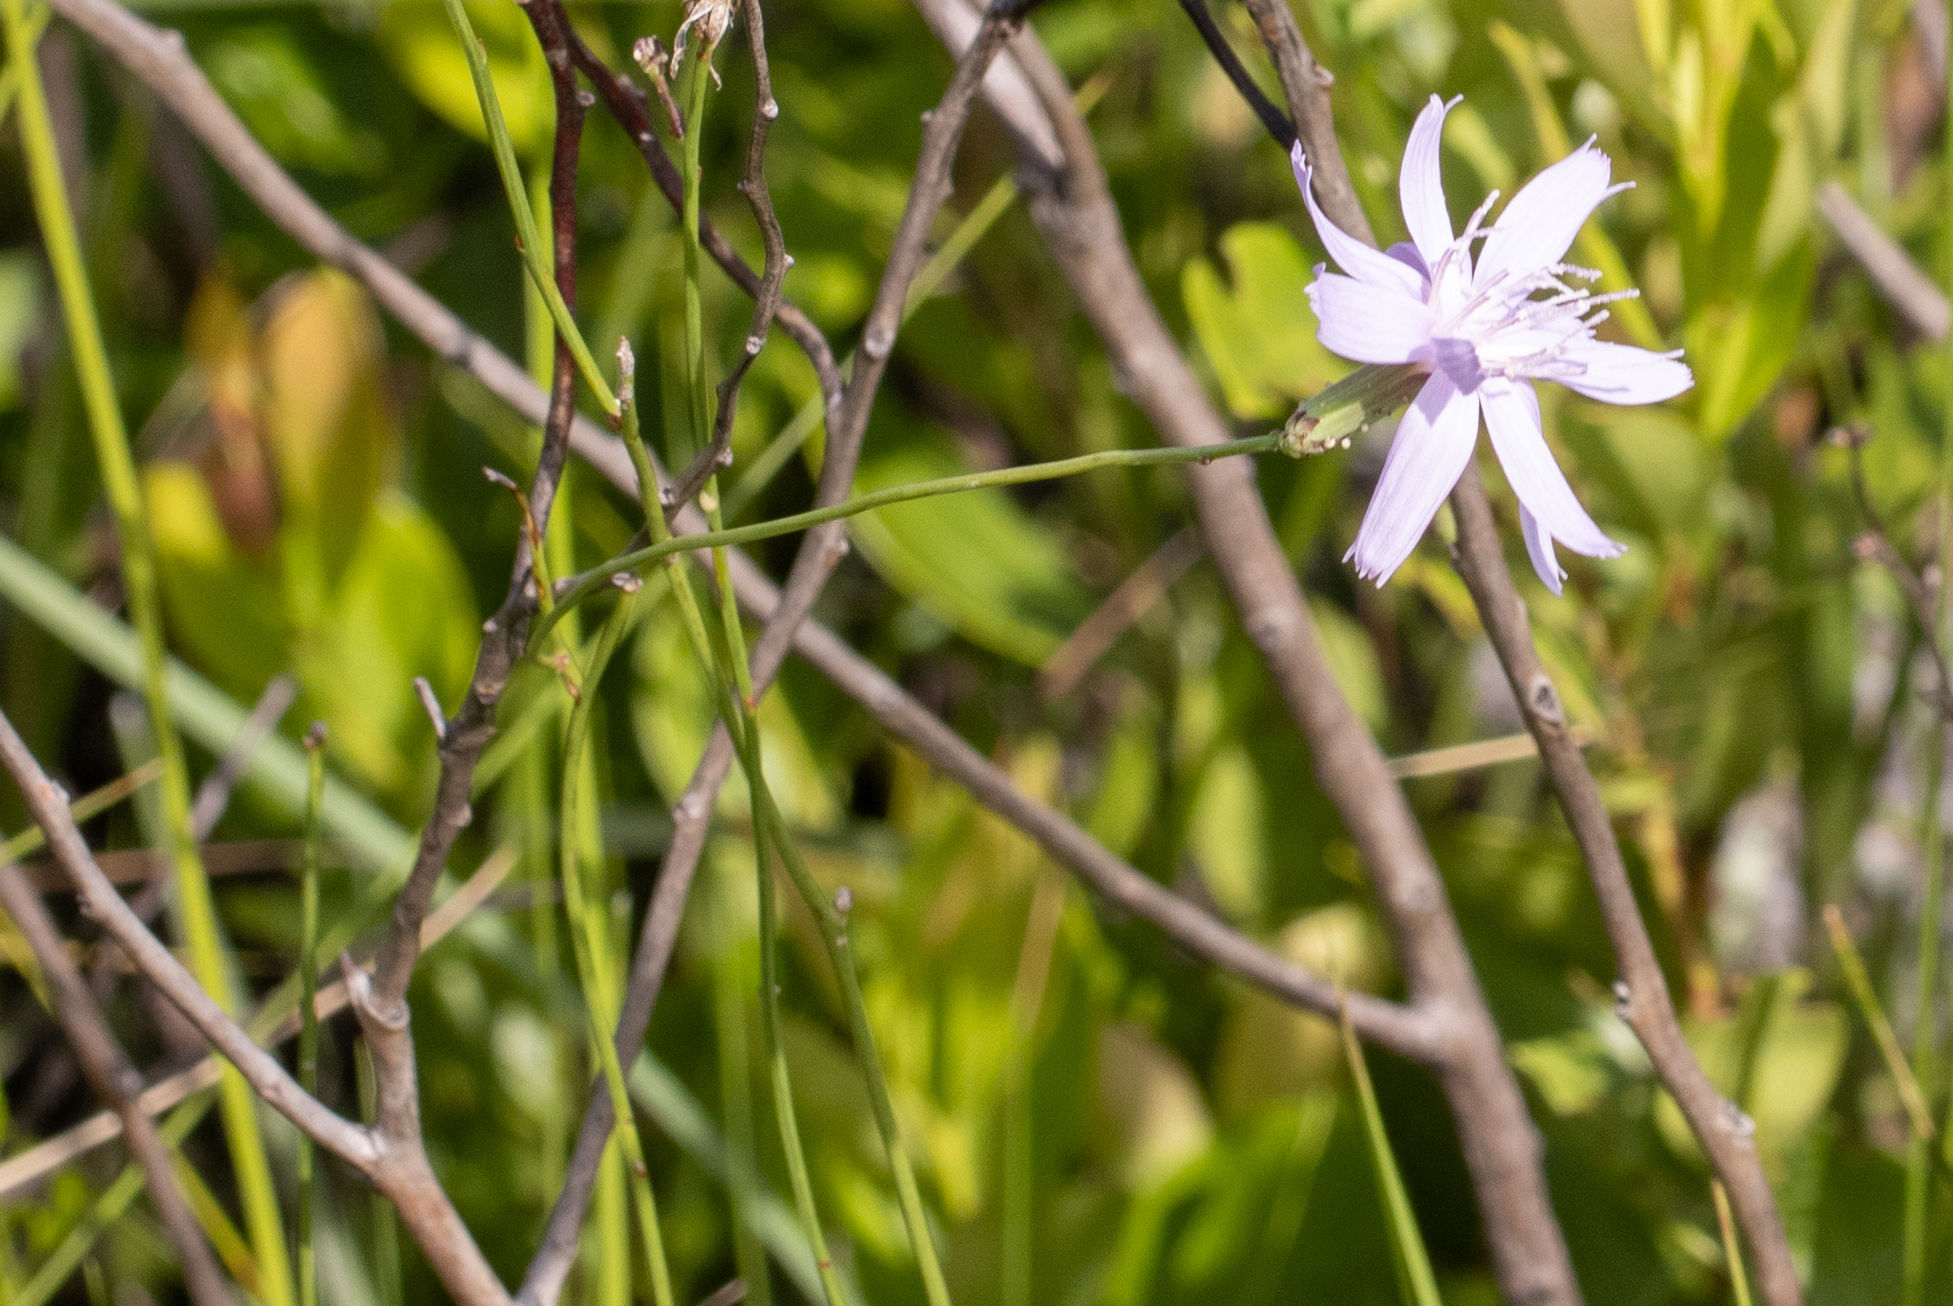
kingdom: Plantae
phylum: Tracheophyta
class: Magnoliopsida
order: Asterales
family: Asteraceae
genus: Lygodesmia
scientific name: Lygodesmia aphylla
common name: Rose-rush
